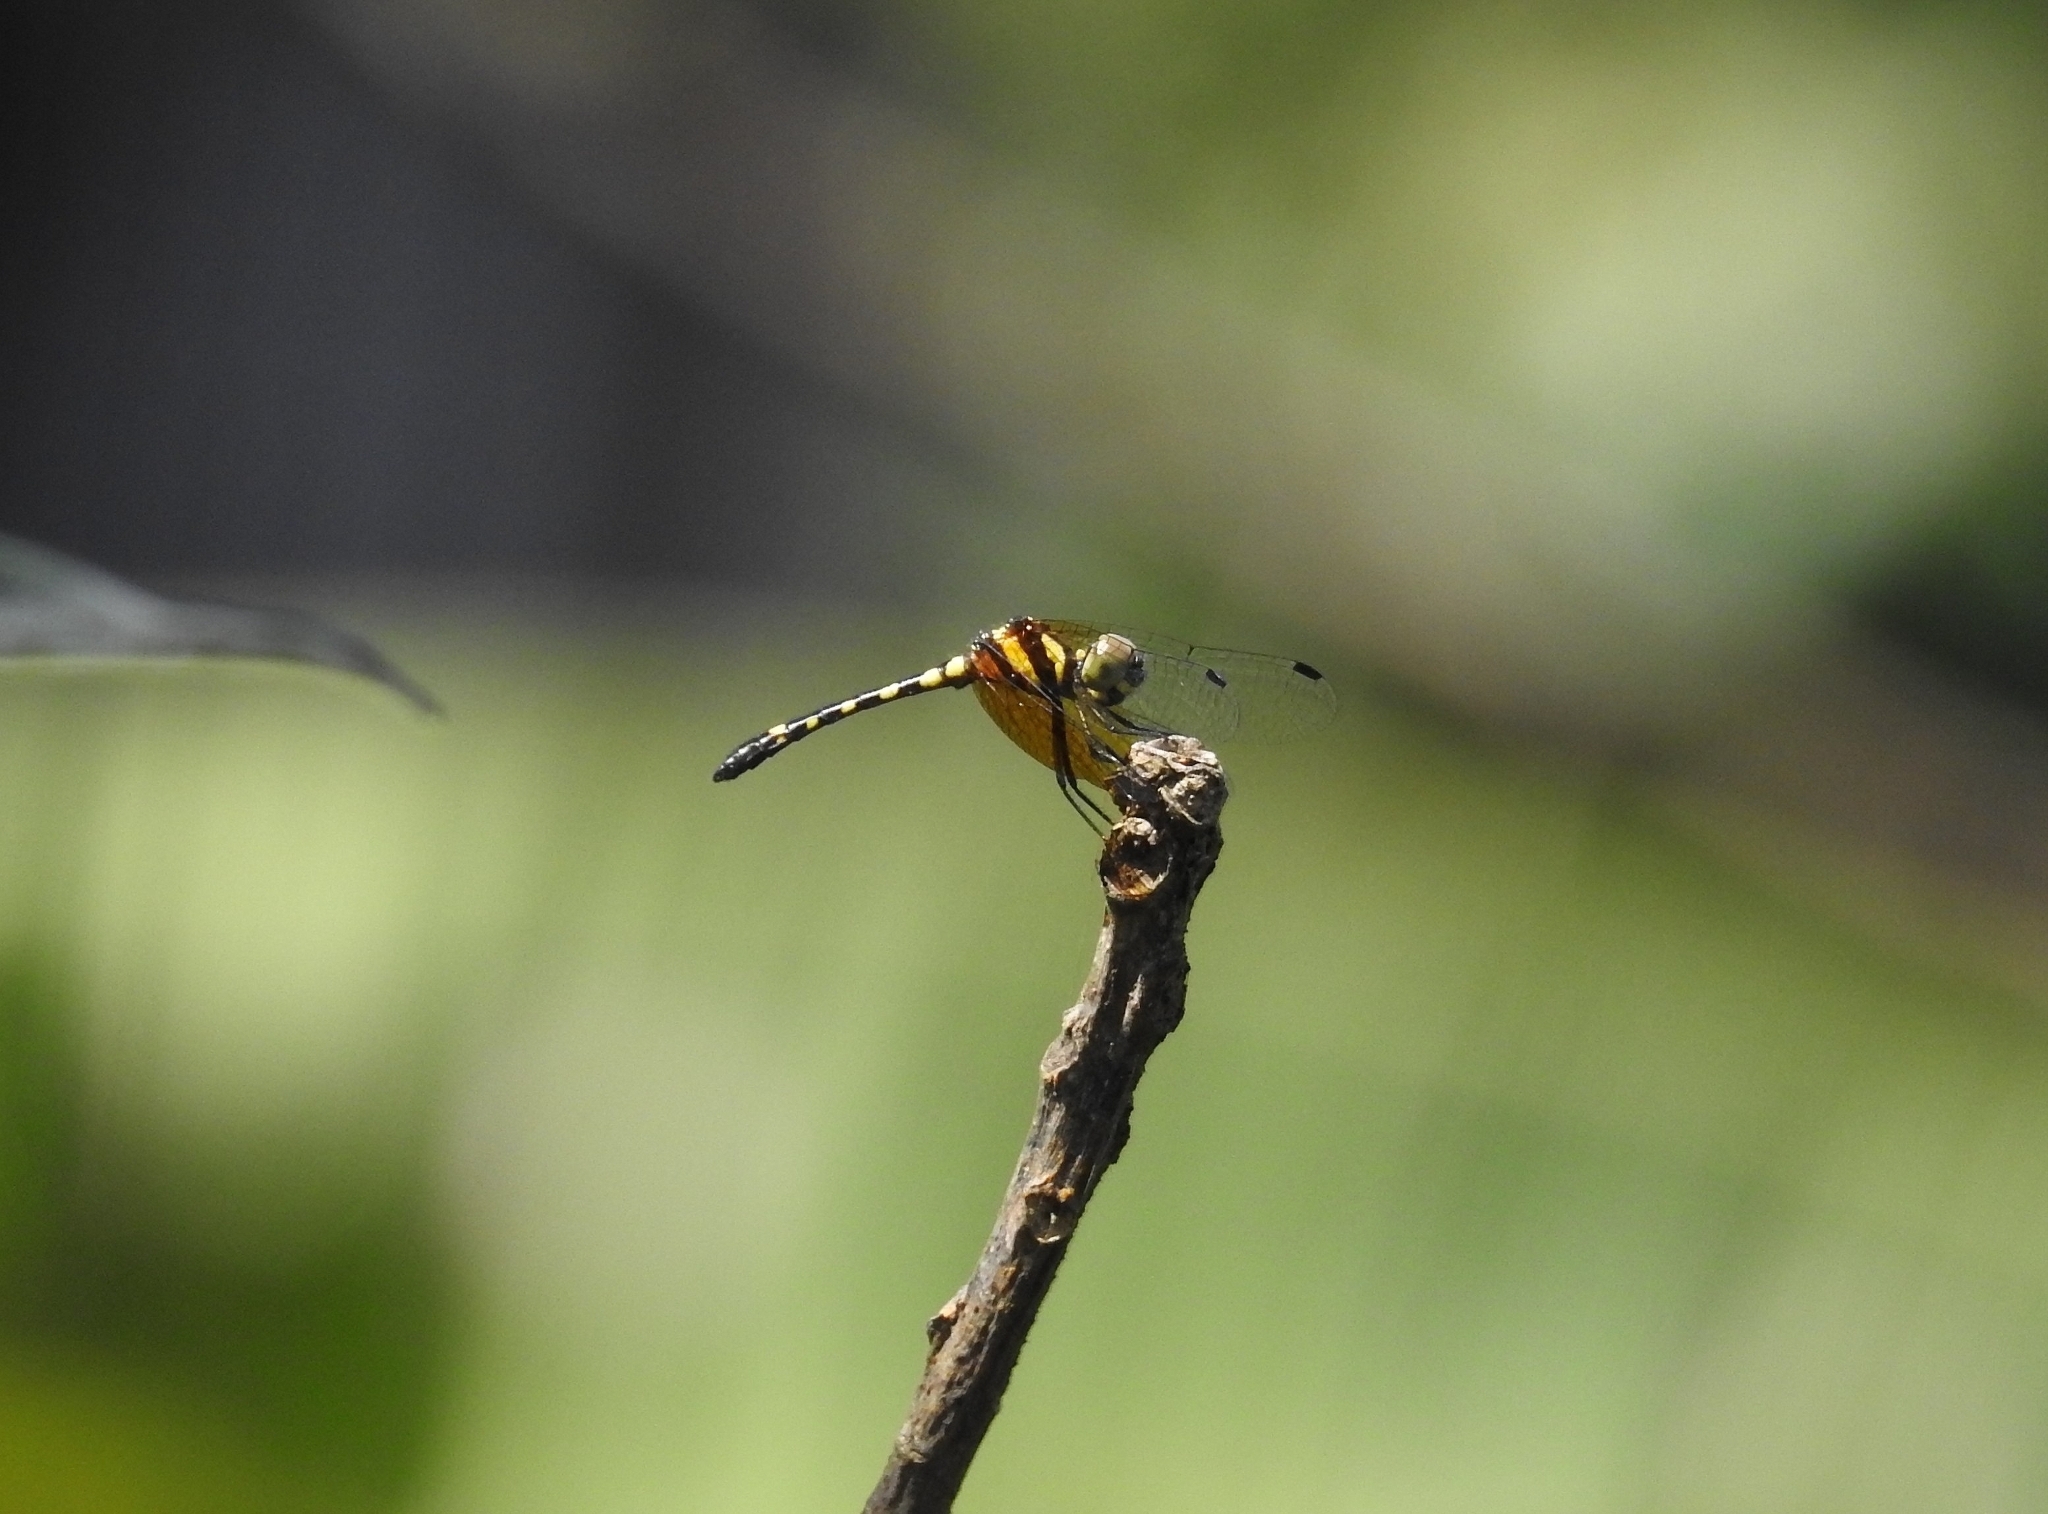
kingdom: Animalia
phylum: Arthropoda
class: Insecta
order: Odonata
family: Libellulidae
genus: Tetrathemis
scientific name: Tetrathemis platyptera
